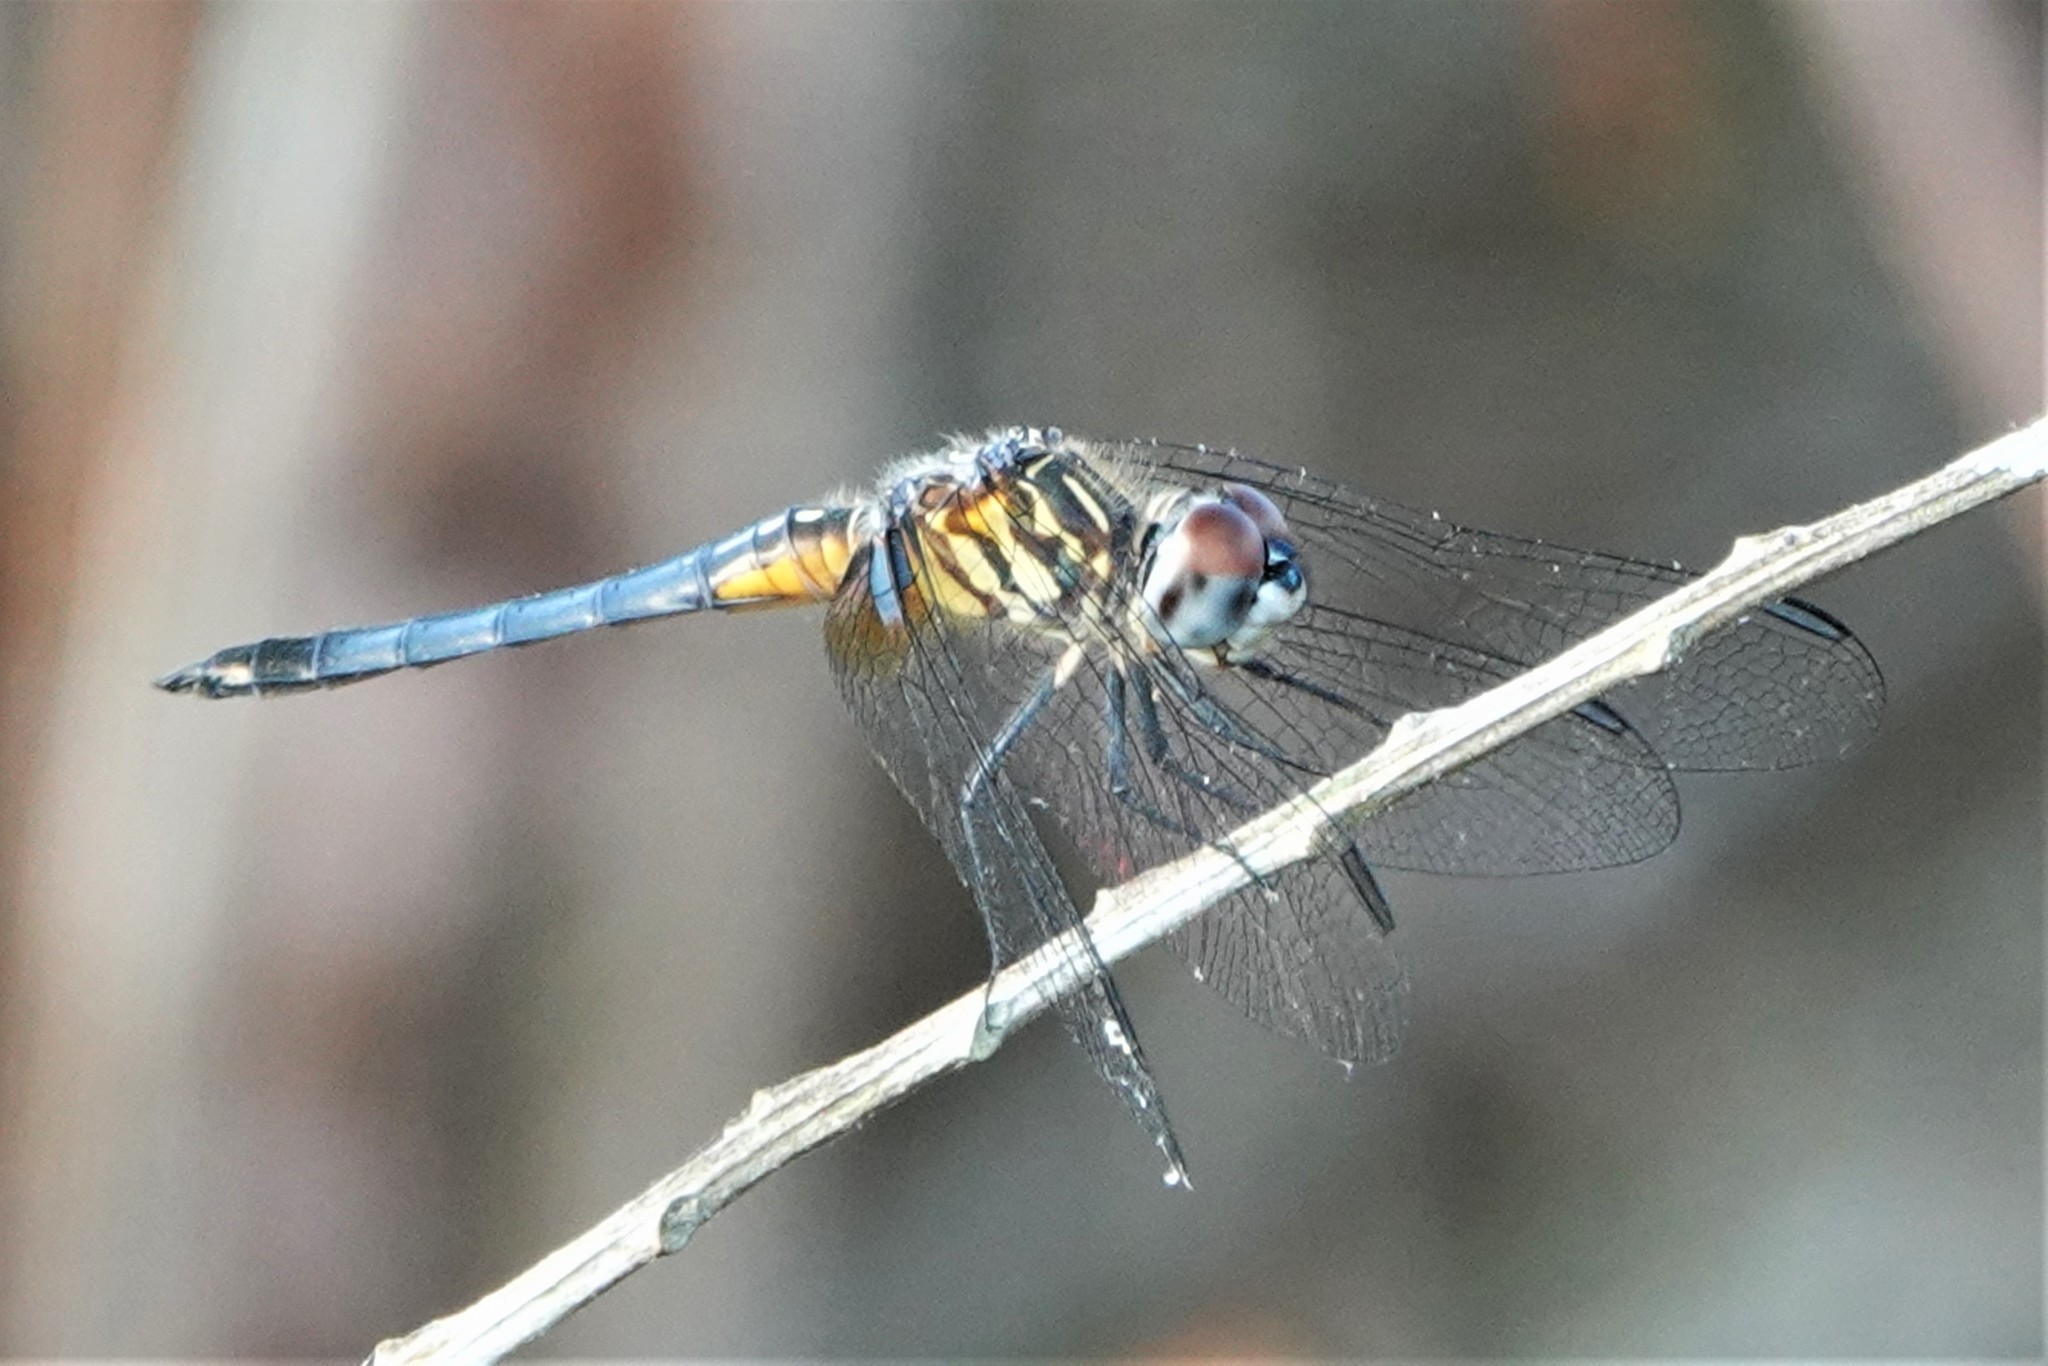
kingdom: Animalia
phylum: Arthropoda
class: Insecta
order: Odonata
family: Libellulidae
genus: Pachydiplax
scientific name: Pachydiplax longipennis
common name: Blue dasher
